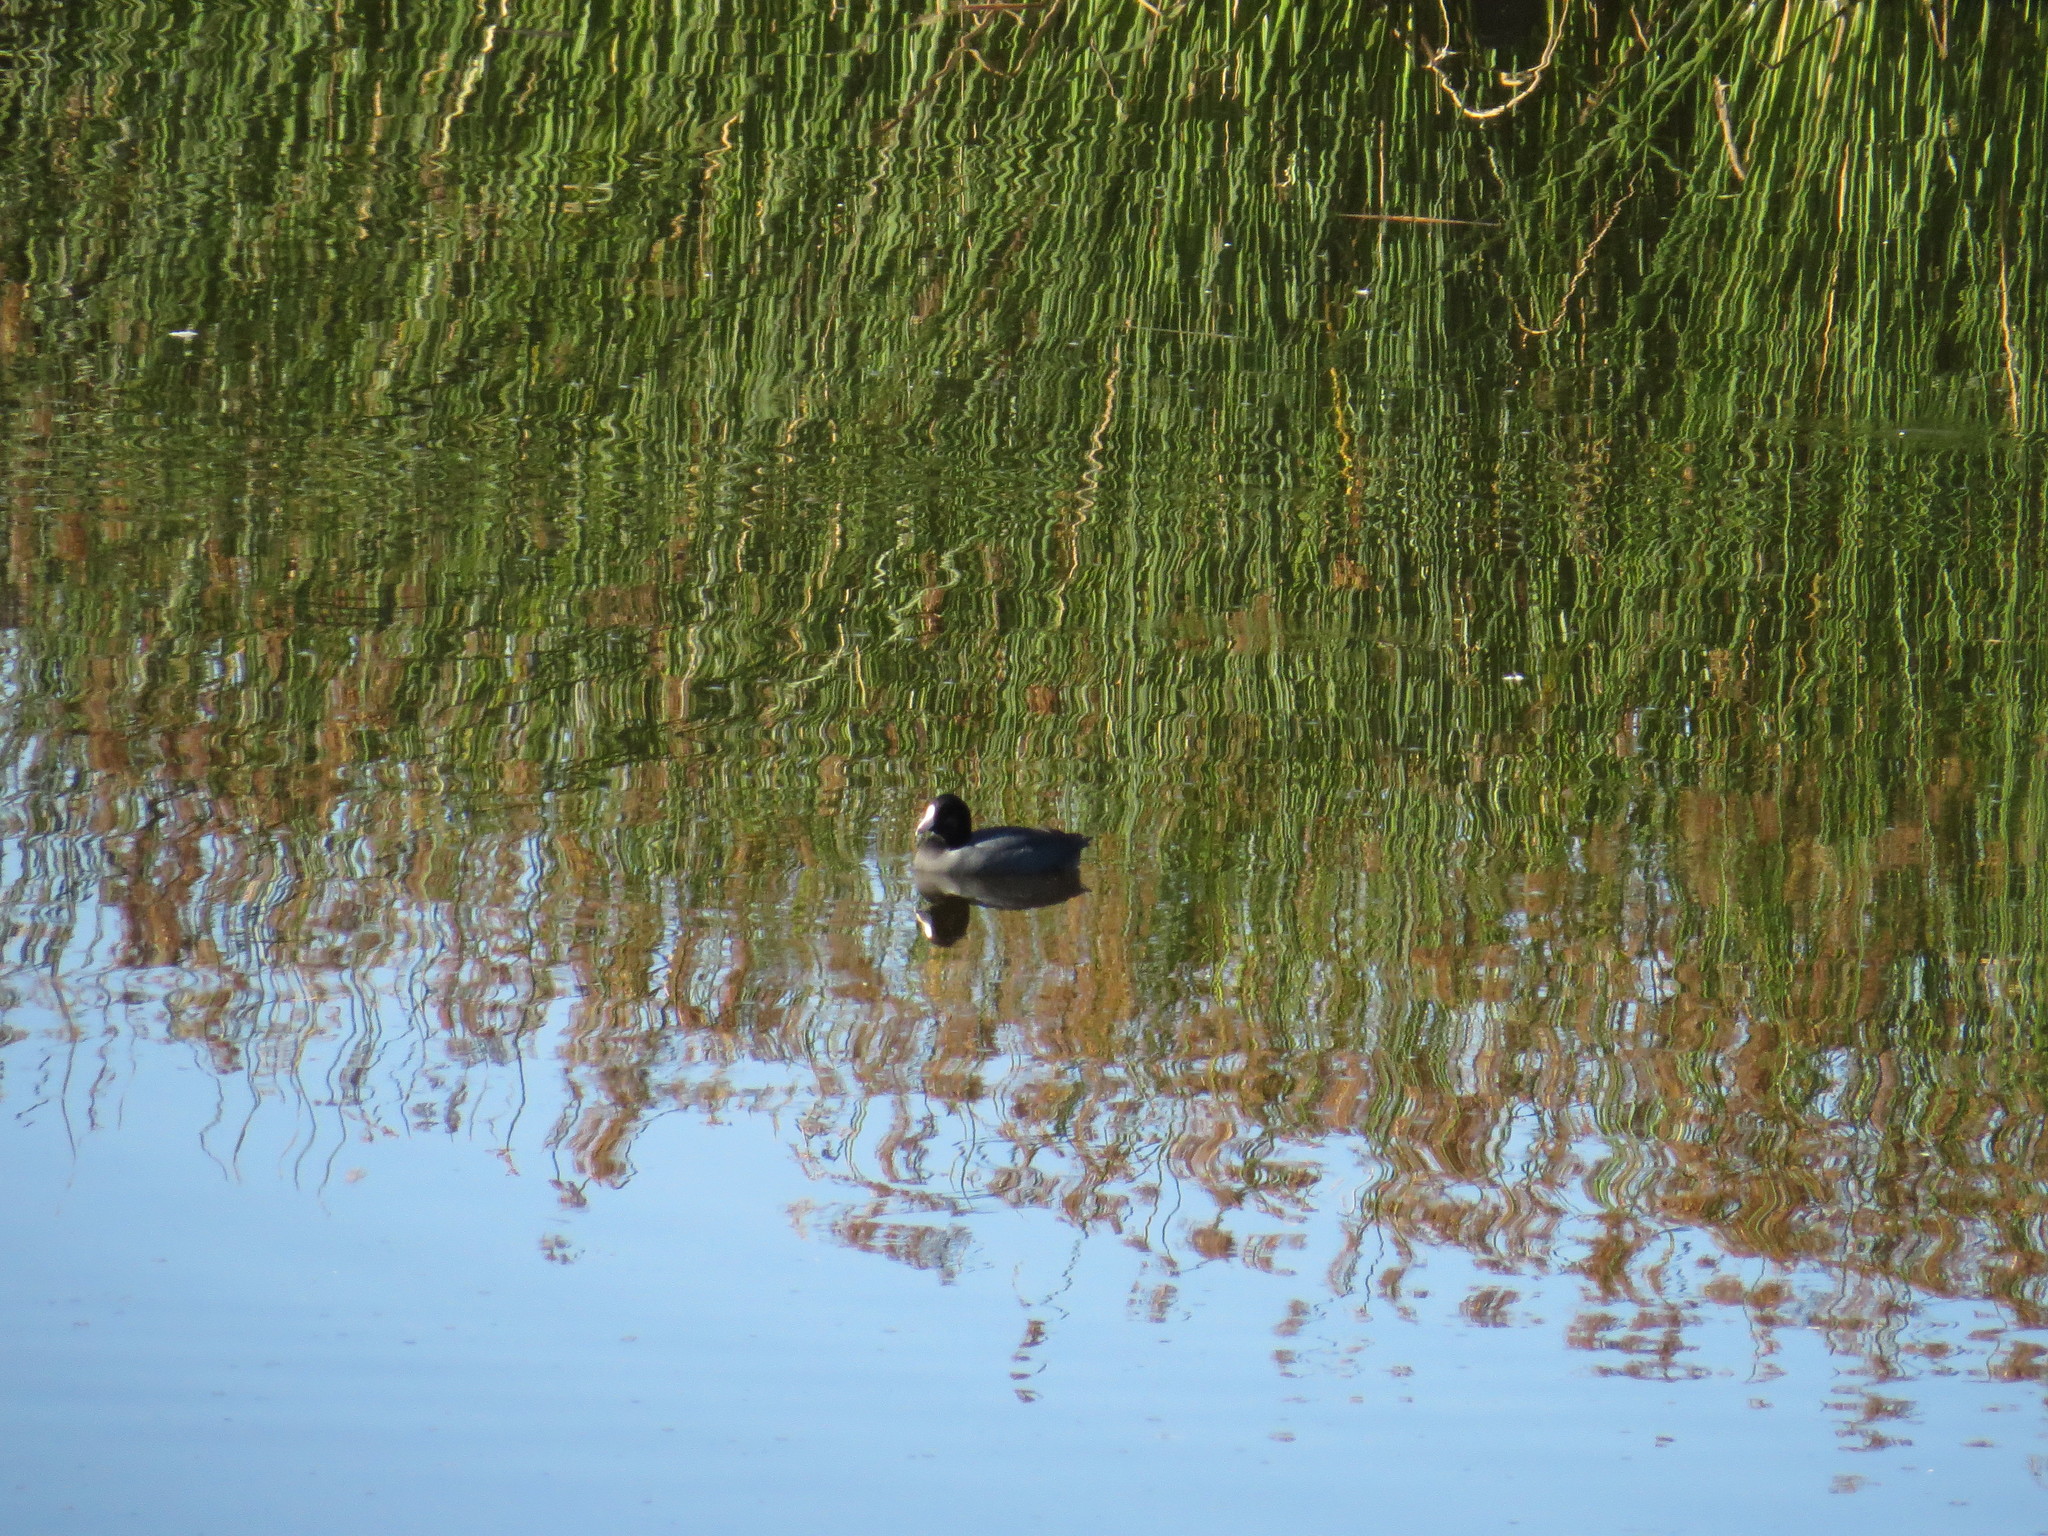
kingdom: Animalia
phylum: Chordata
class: Aves
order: Gruiformes
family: Rallidae
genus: Fulica
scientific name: Fulica americana
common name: American coot
